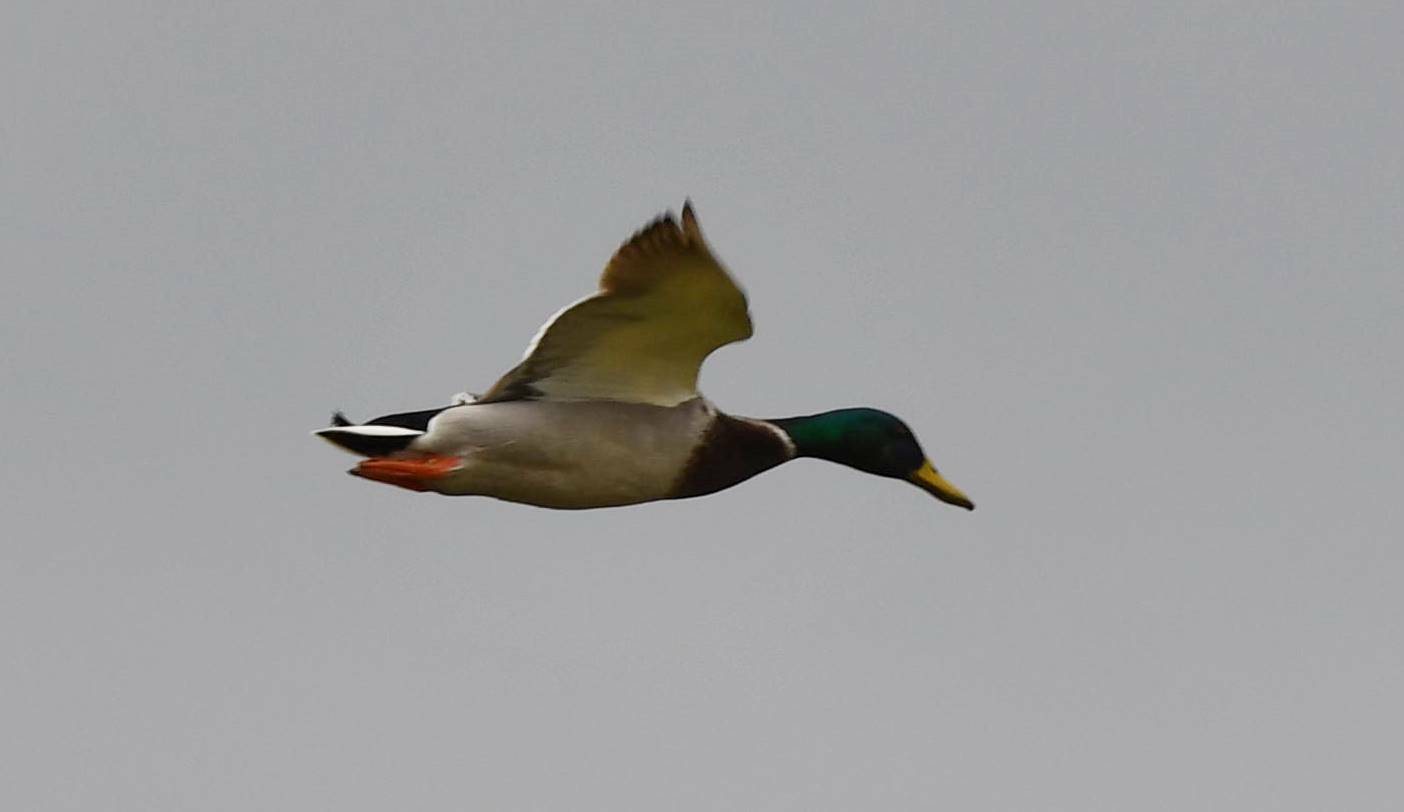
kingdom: Animalia
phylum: Chordata
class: Aves
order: Anseriformes
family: Anatidae
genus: Anas
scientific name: Anas platyrhynchos
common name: Mallard
